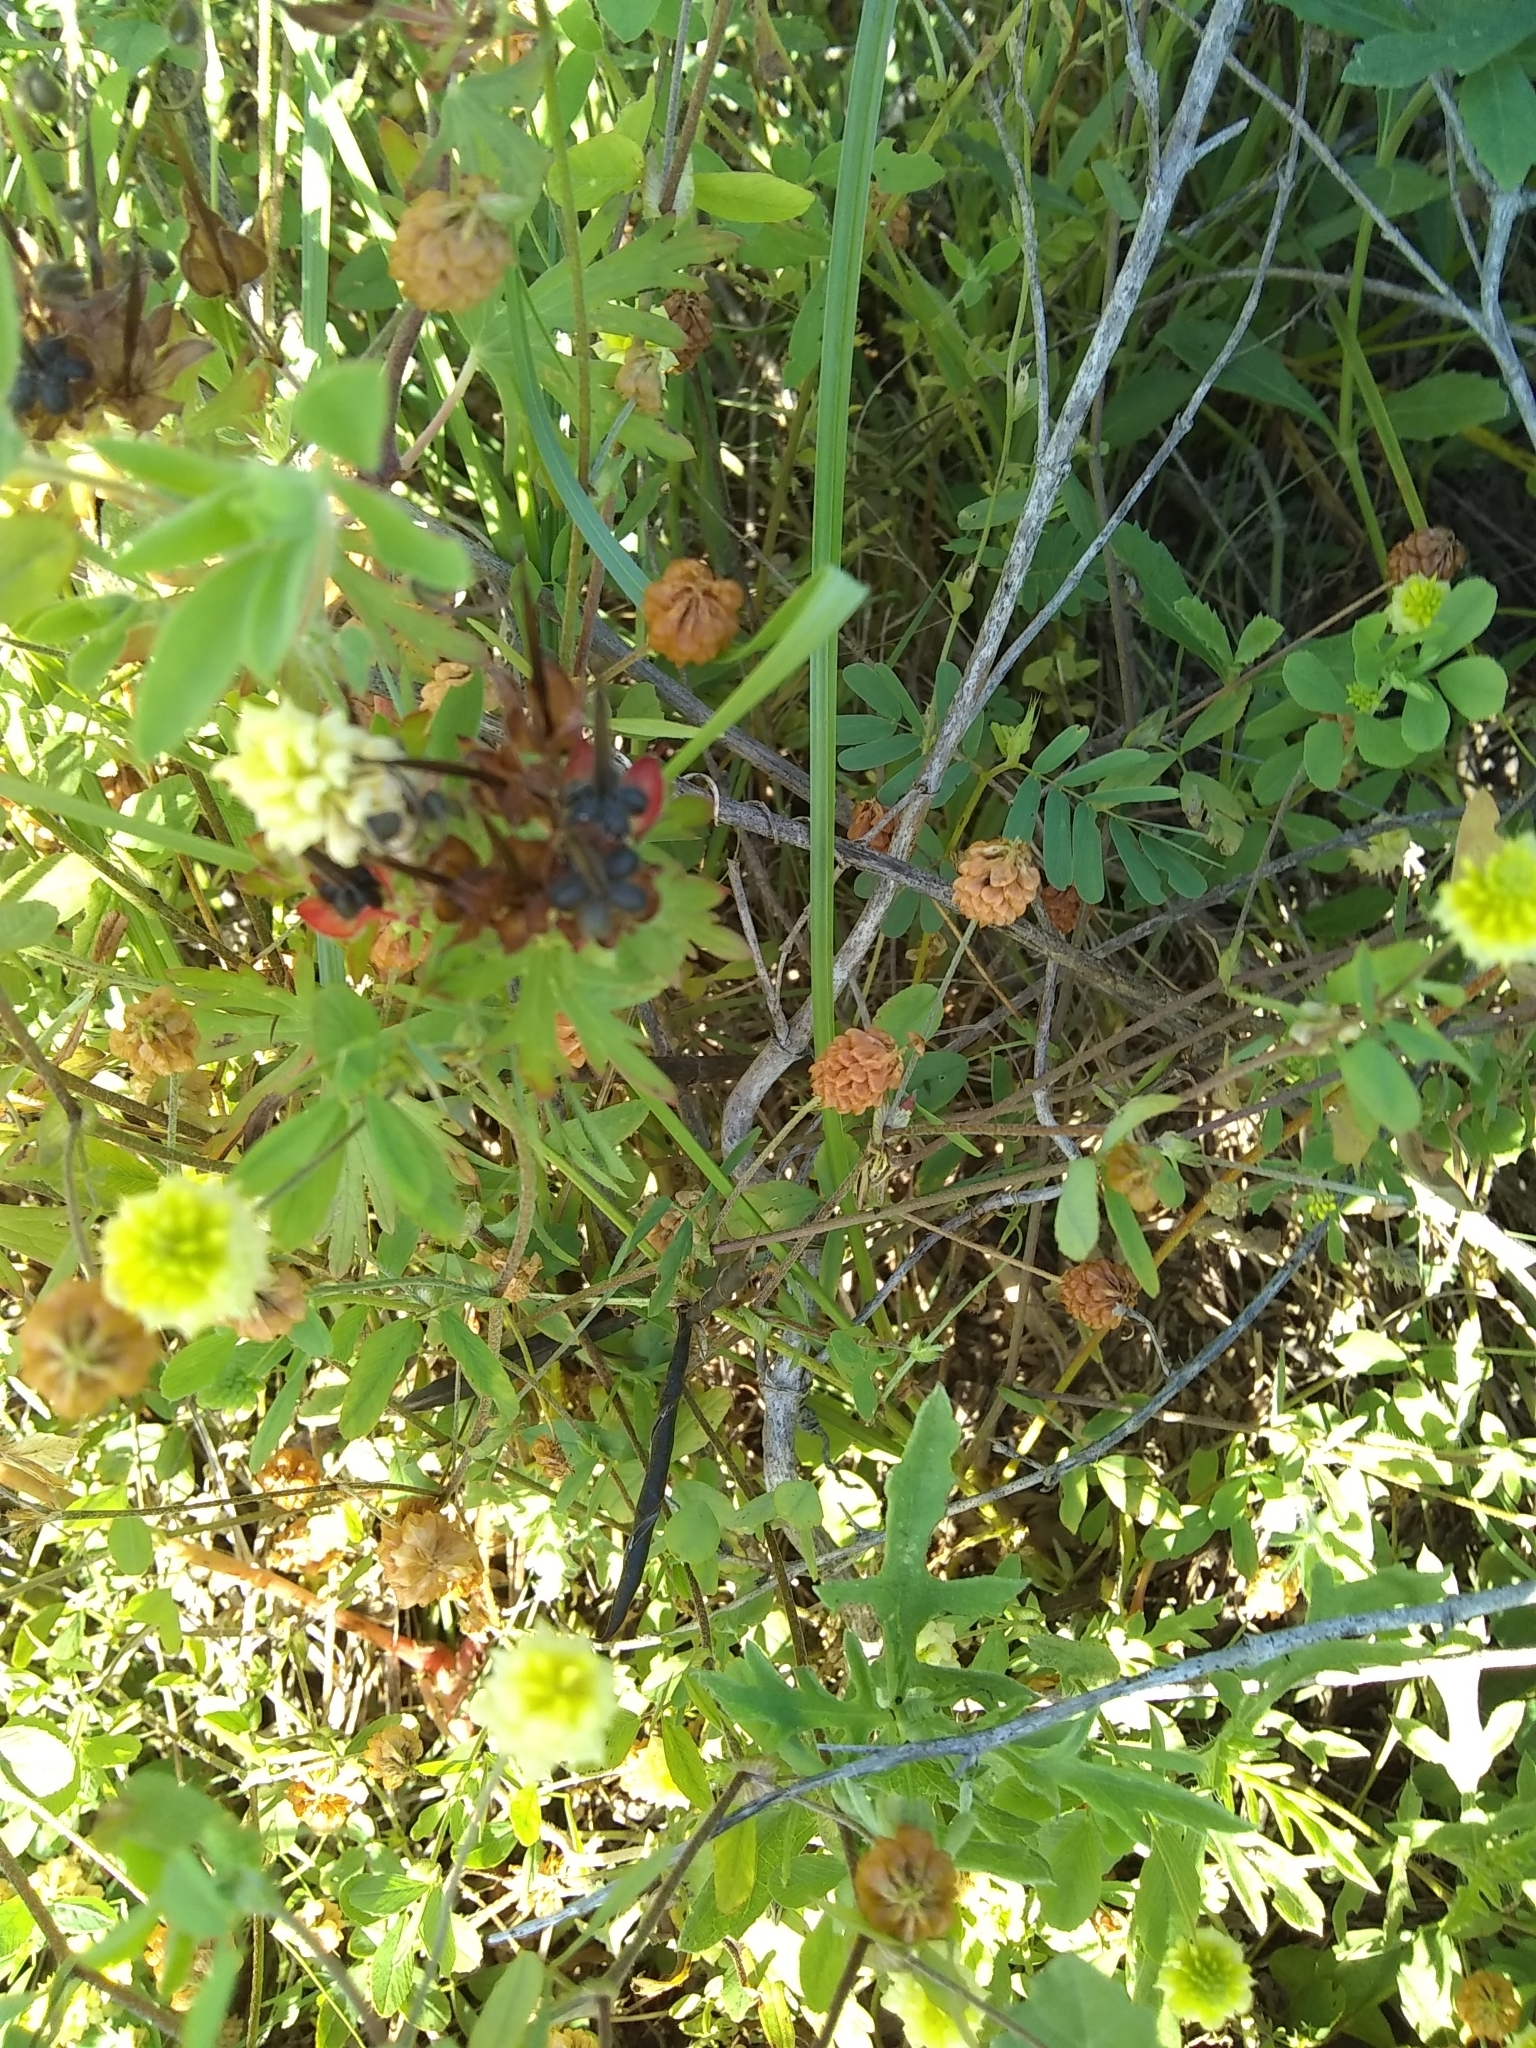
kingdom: Plantae
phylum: Tracheophyta
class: Magnoliopsida
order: Fabales
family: Fabaceae
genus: Trifolium
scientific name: Trifolium campestre
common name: Field clover
